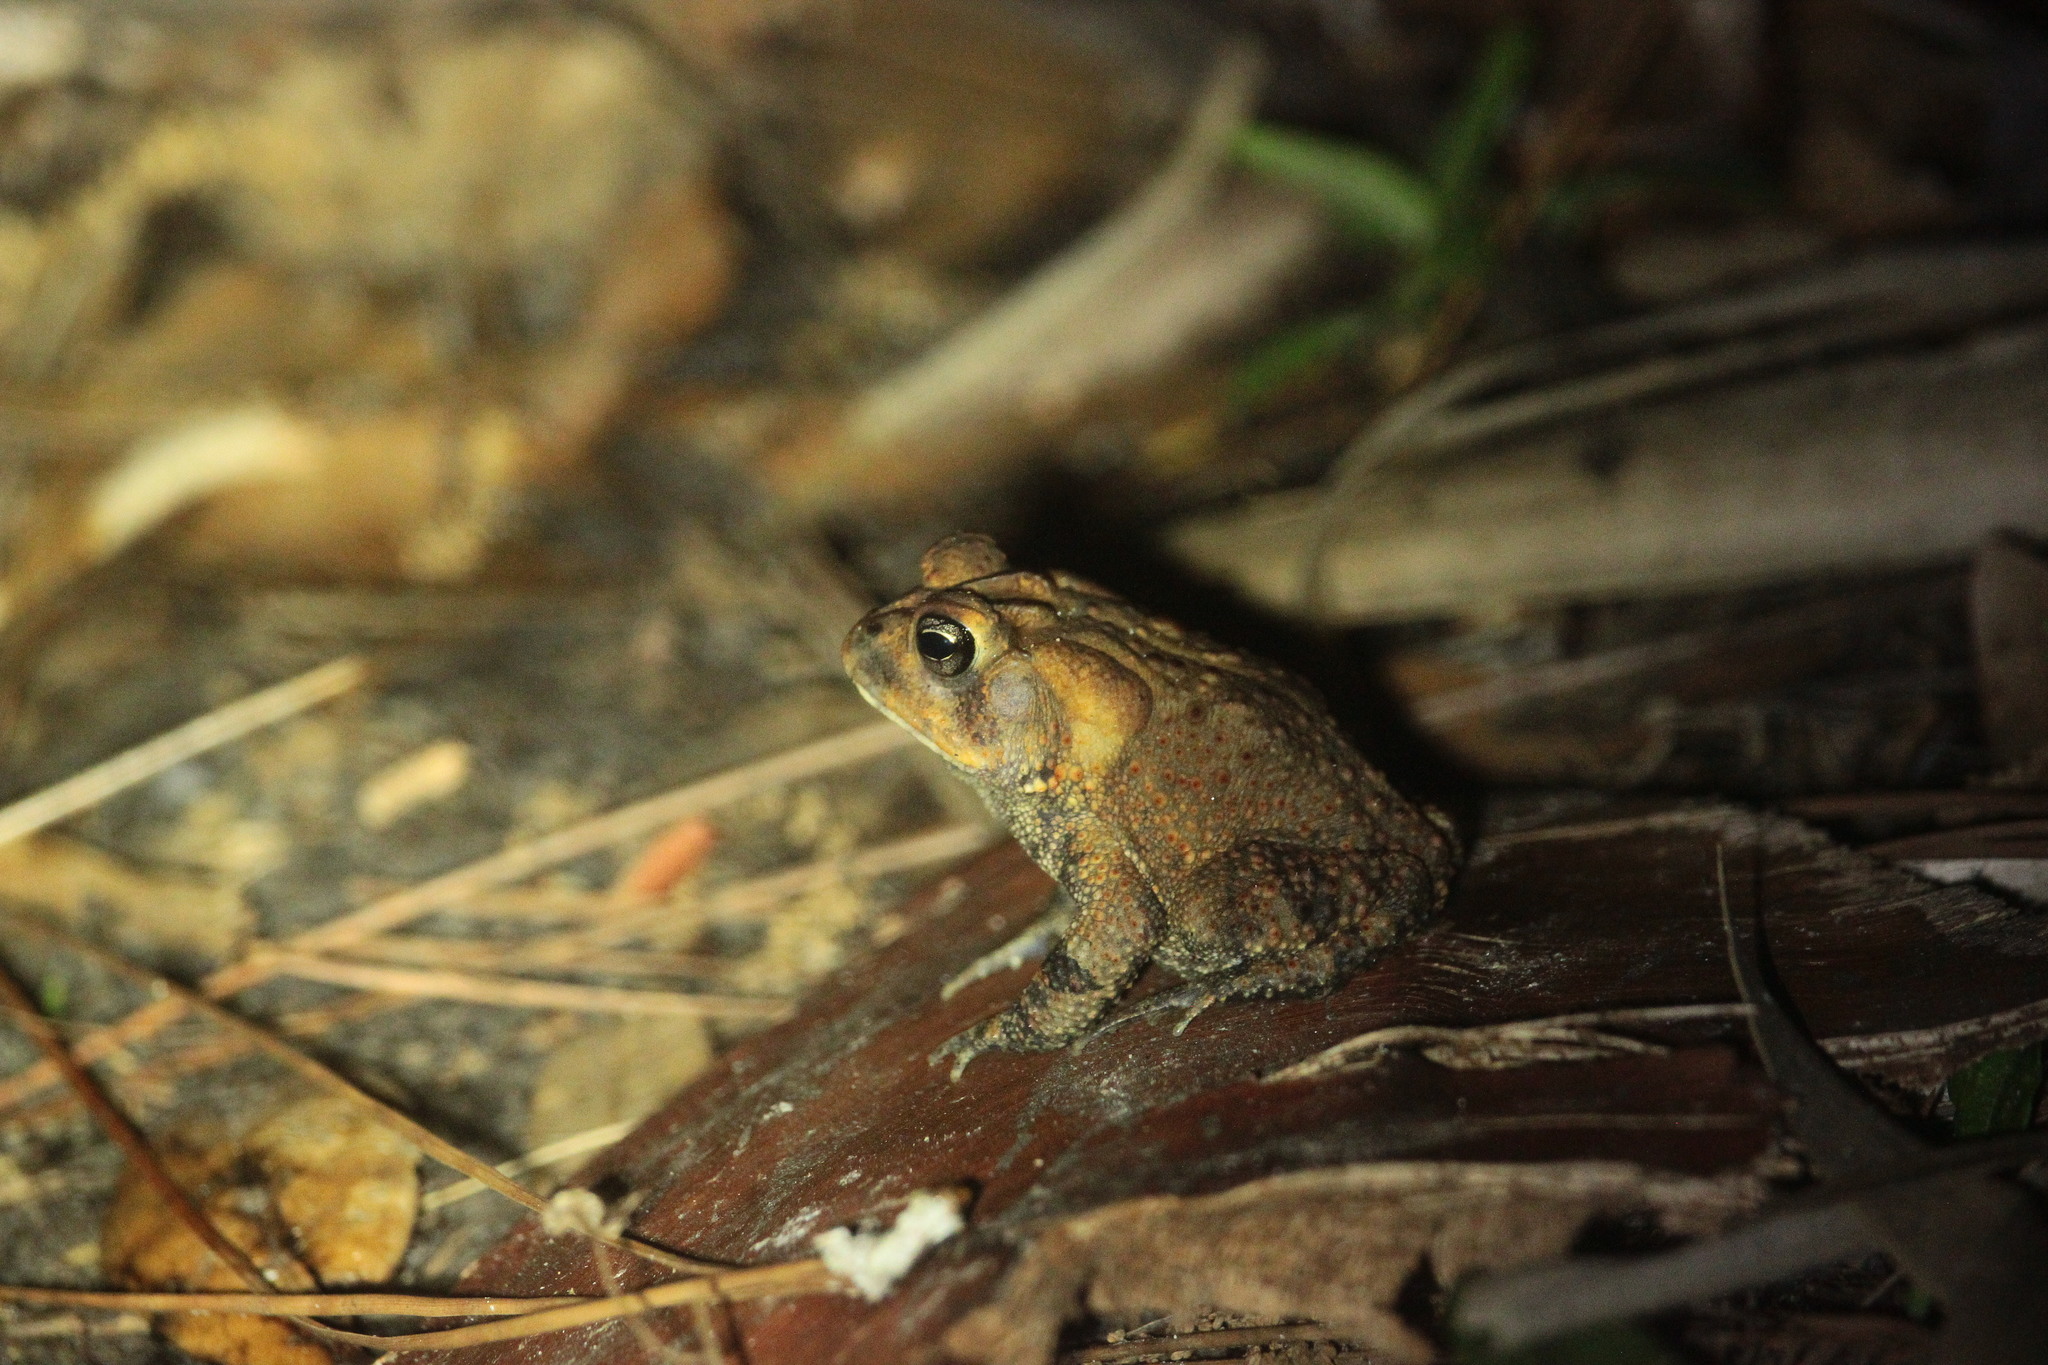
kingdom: Animalia
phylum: Chordata
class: Amphibia
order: Anura
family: Bufonidae
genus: Anaxyrus
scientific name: Anaxyrus terrestris
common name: Southern toad
